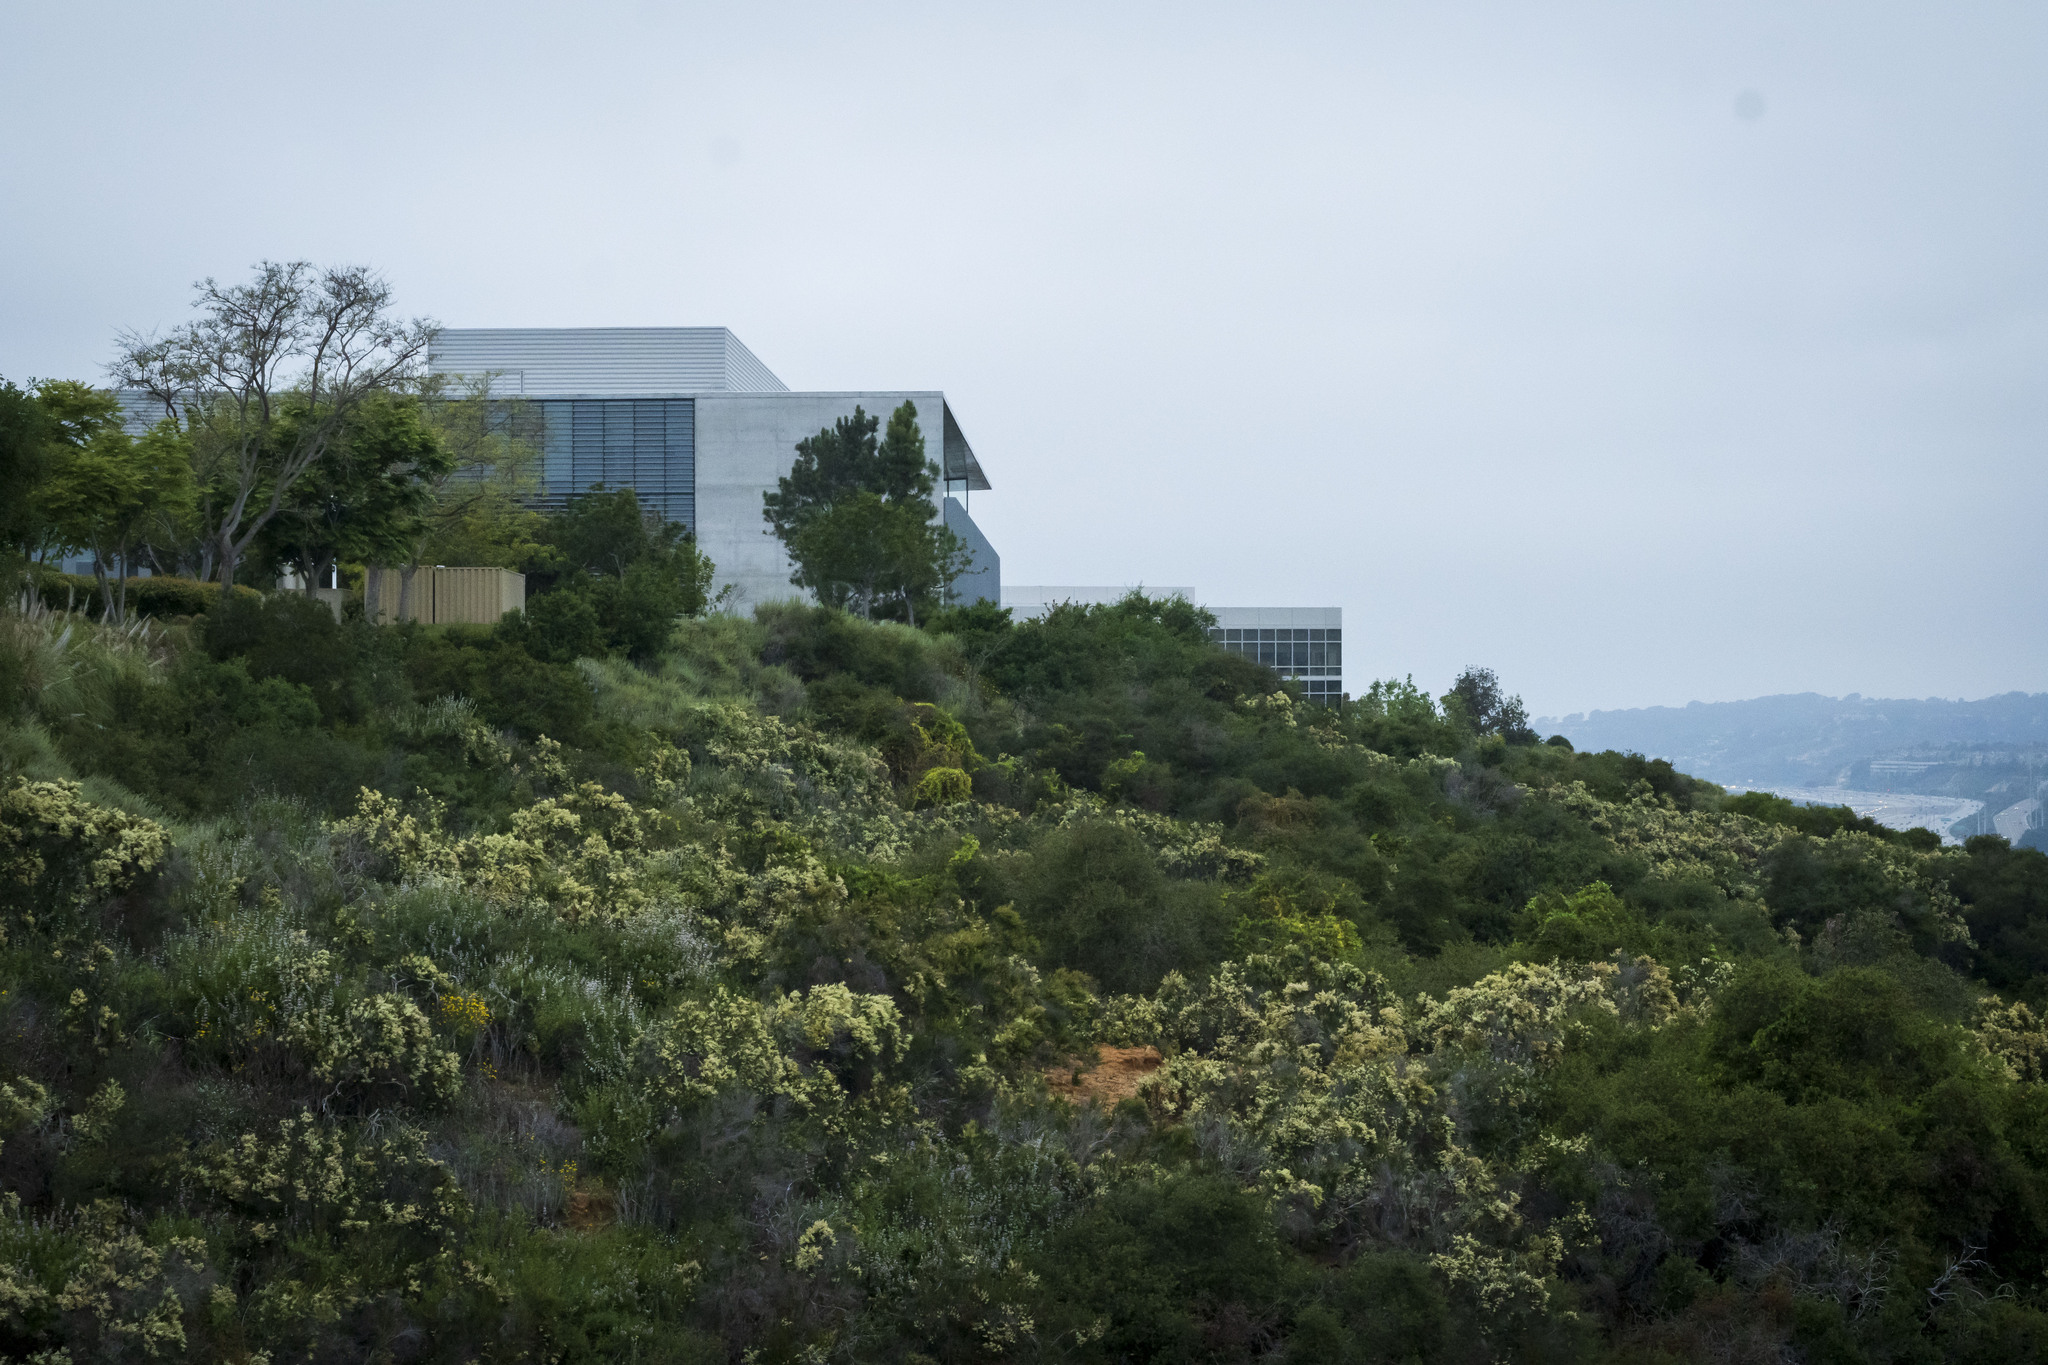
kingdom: Plantae
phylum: Tracheophyta
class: Magnoliopsida
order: Rosales
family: Rosaceae
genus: Adenostoma
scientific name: Adenostoma fasciculatum
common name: Chamise
